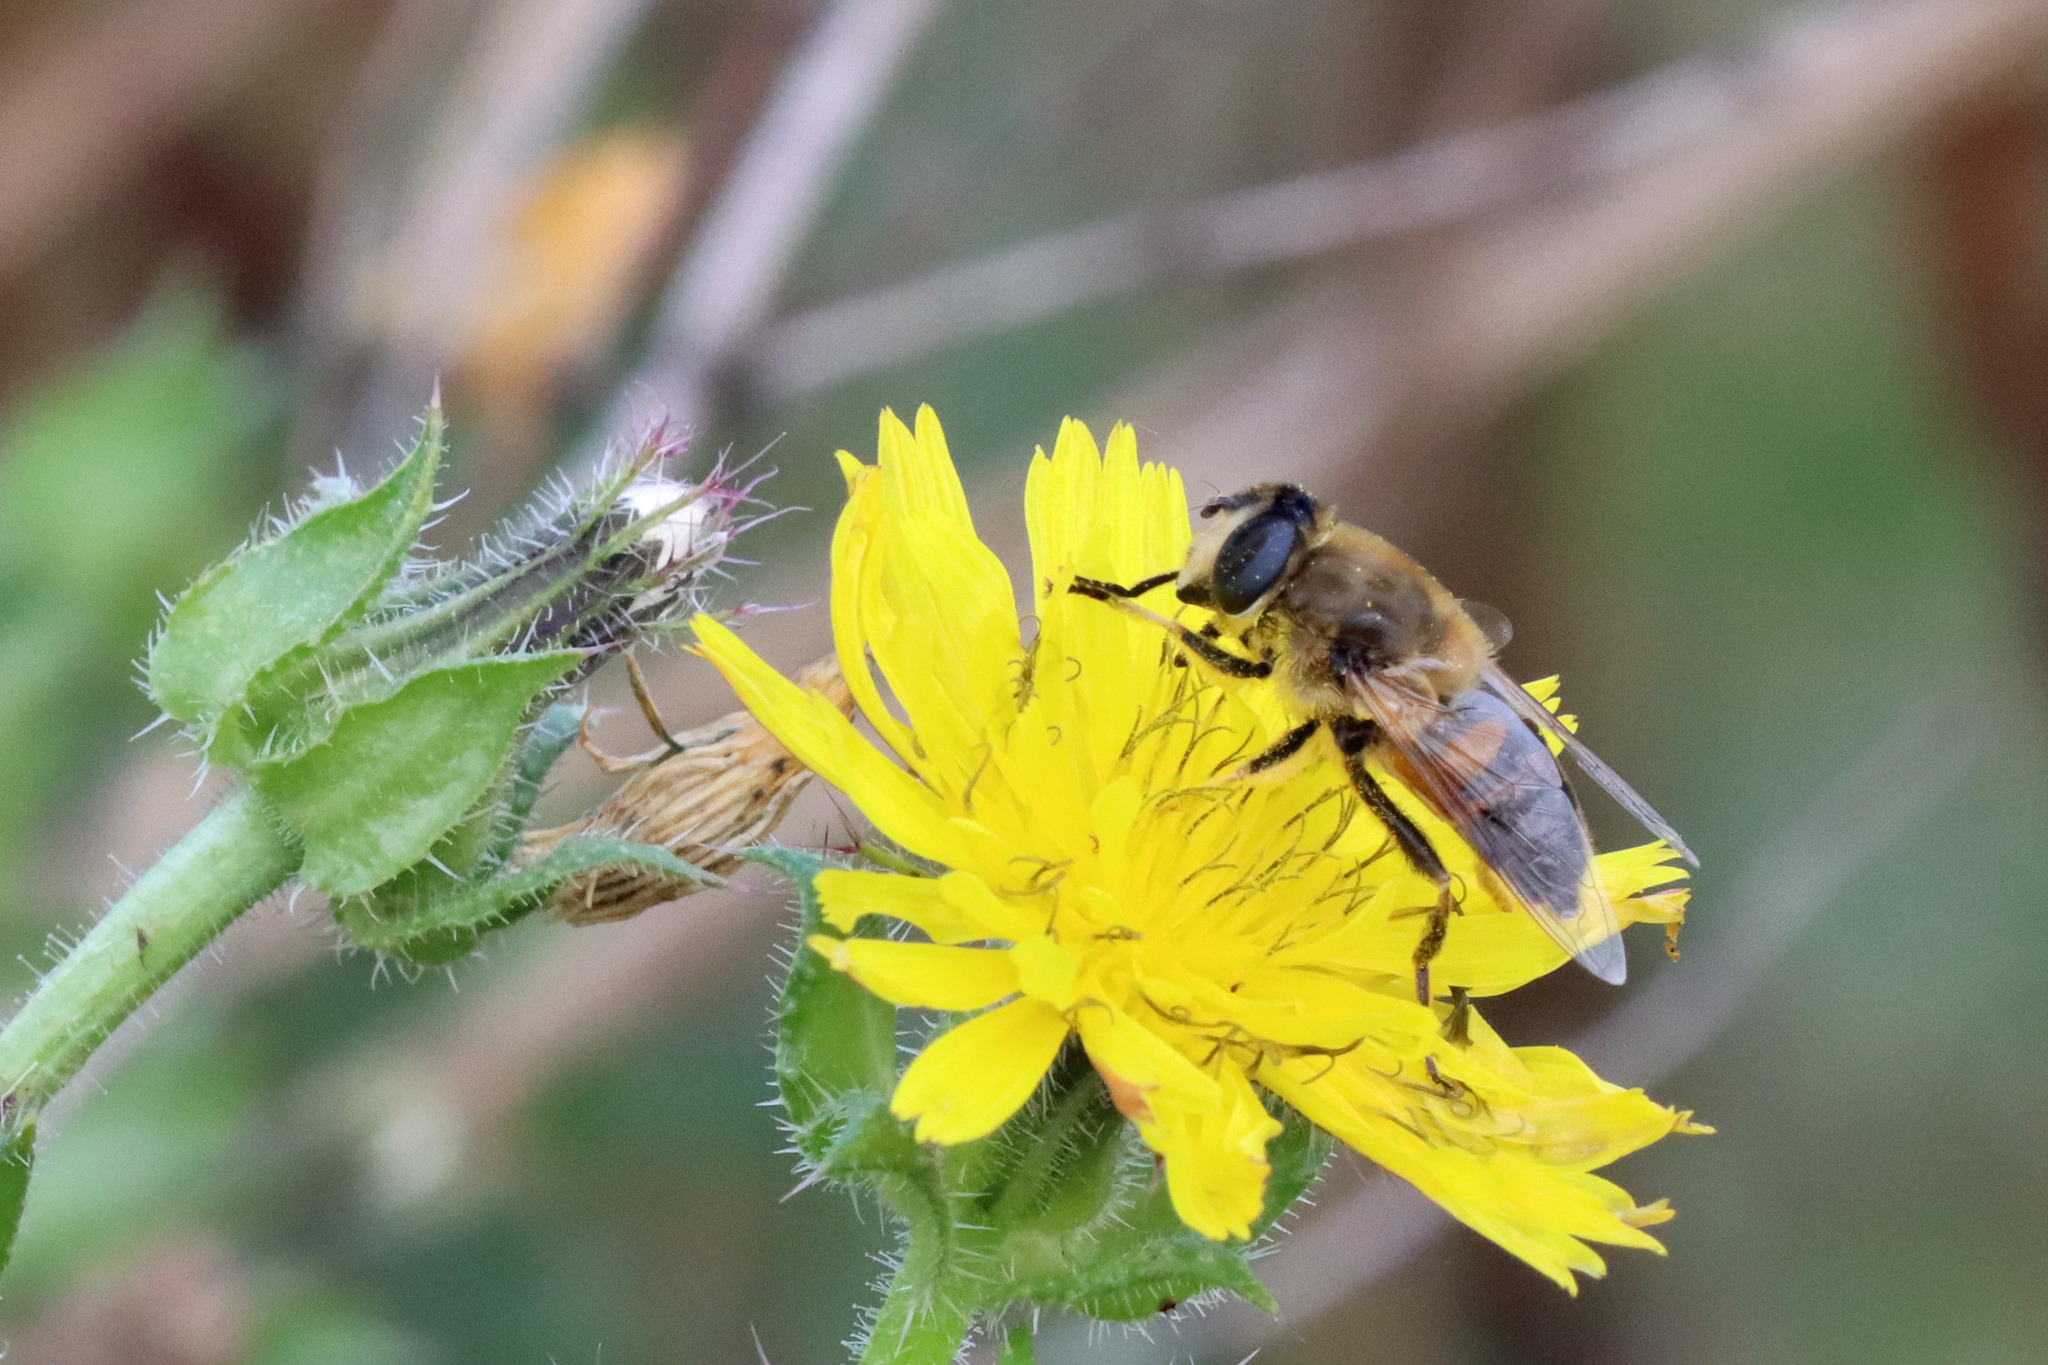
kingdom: Animalia
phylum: Arthropoda
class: Insecta
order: Diptera
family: Syrphidae
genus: Eristalis
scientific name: Eristalis tenax
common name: Drone fly
